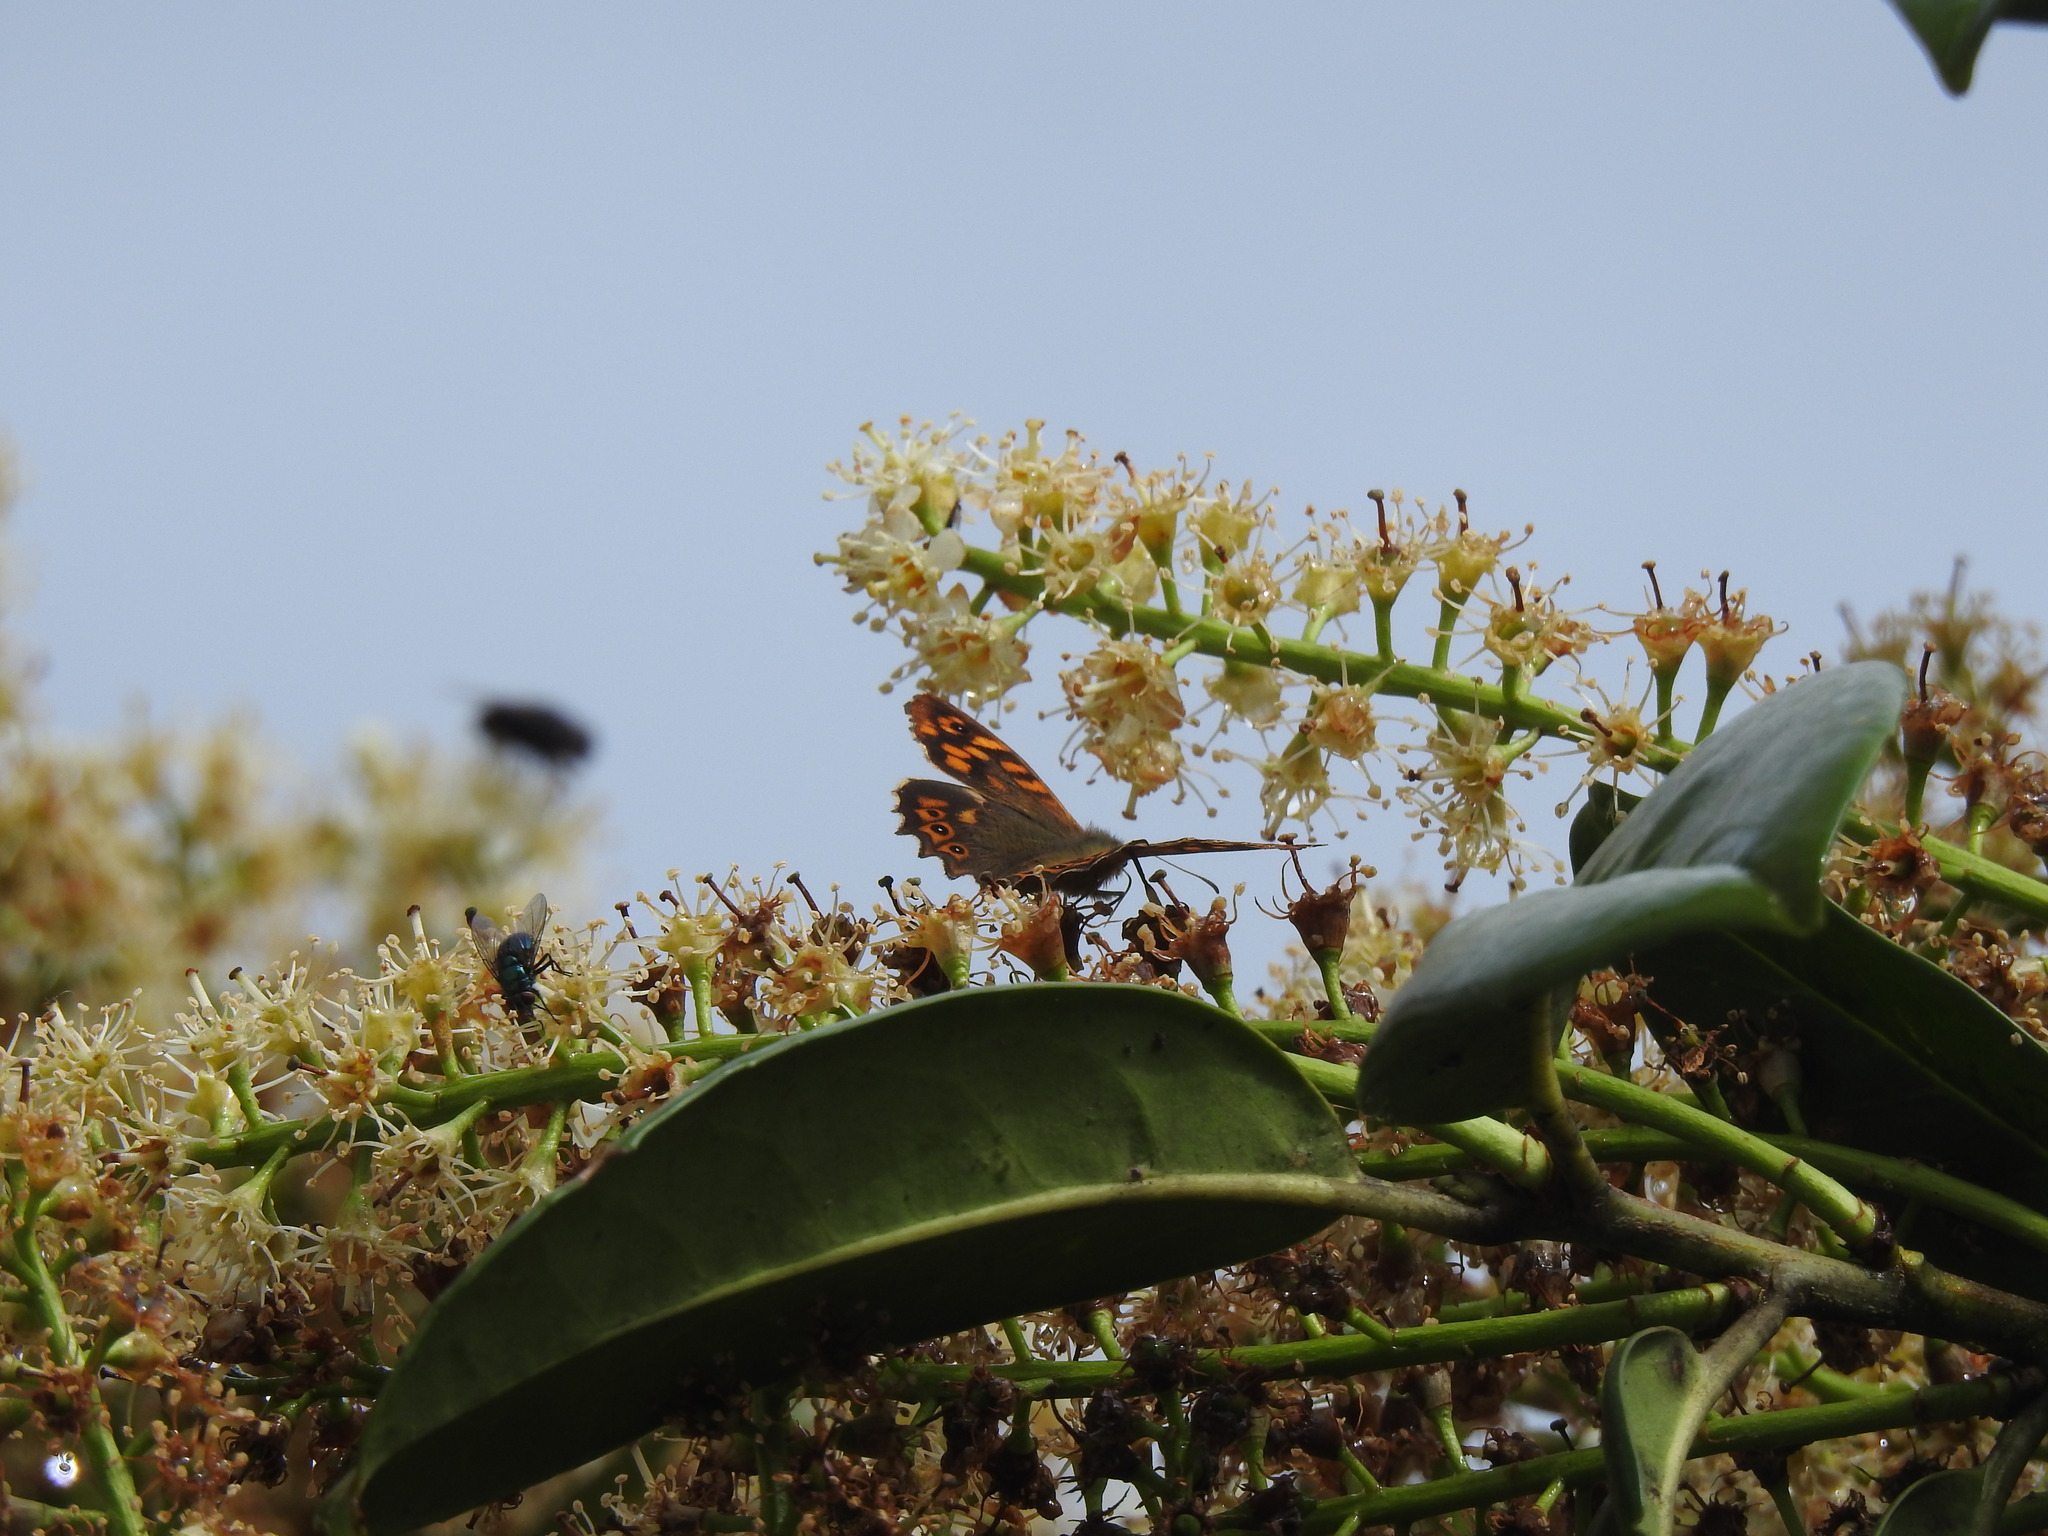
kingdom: Animalia
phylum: Arthropoda
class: Insecta
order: Lepidoptera
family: Nymphalidae
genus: Pararge
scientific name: Pararge aegeria
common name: Speckled wood
